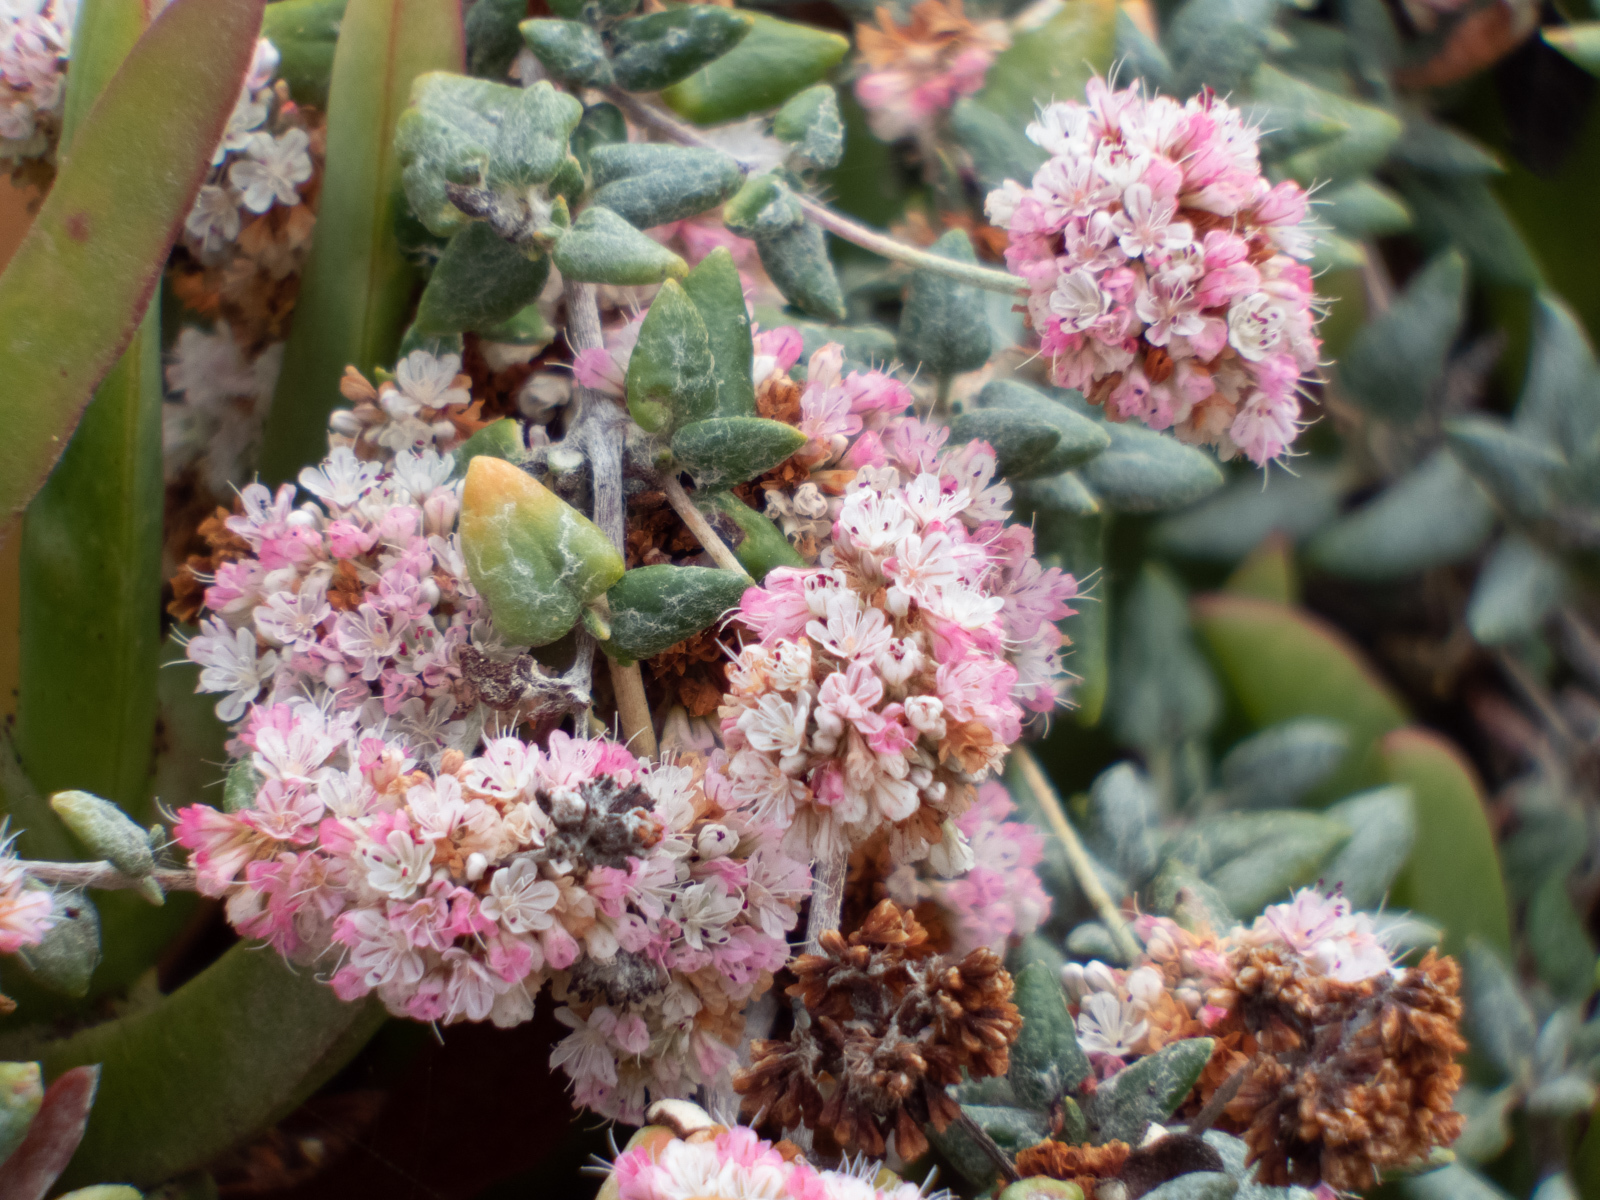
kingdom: Plantae
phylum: Tracheophyta
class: Magnoliopsida
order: Caryophyllales
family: Polygonaceae
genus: Eriogonum
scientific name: Eriogonum parvifolium
